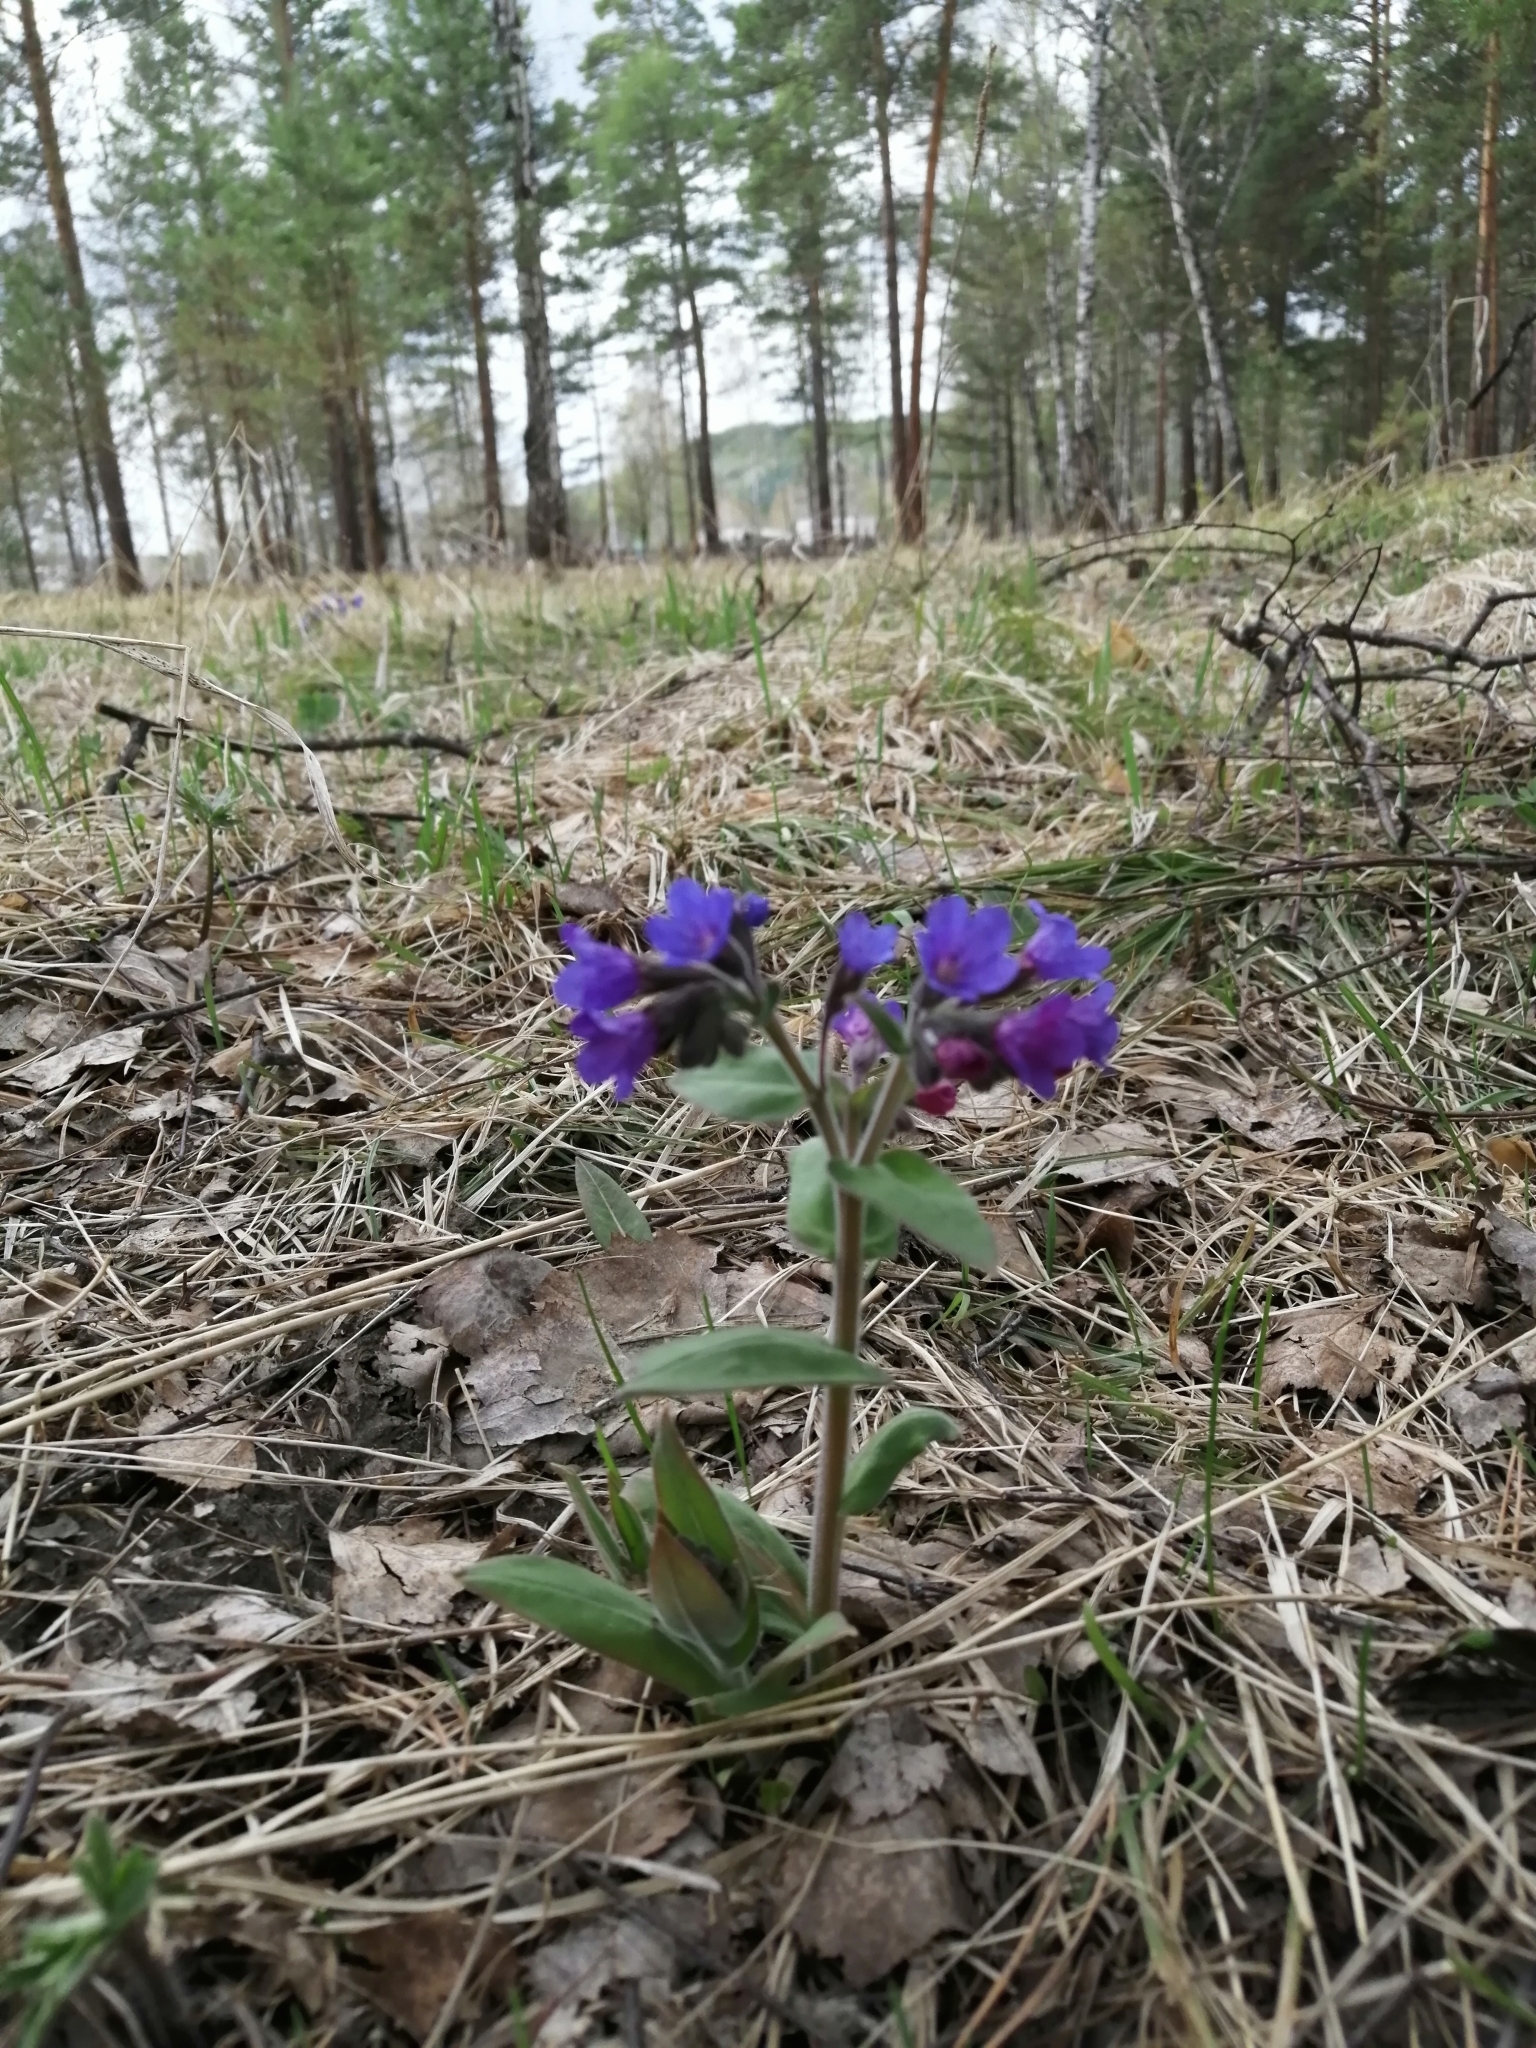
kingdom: Plantae
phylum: Tracheophyta
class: Magnoliopsida
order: Boraginales
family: Boraginaceae
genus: Pulmonaria
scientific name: Pulmonaria mollis
